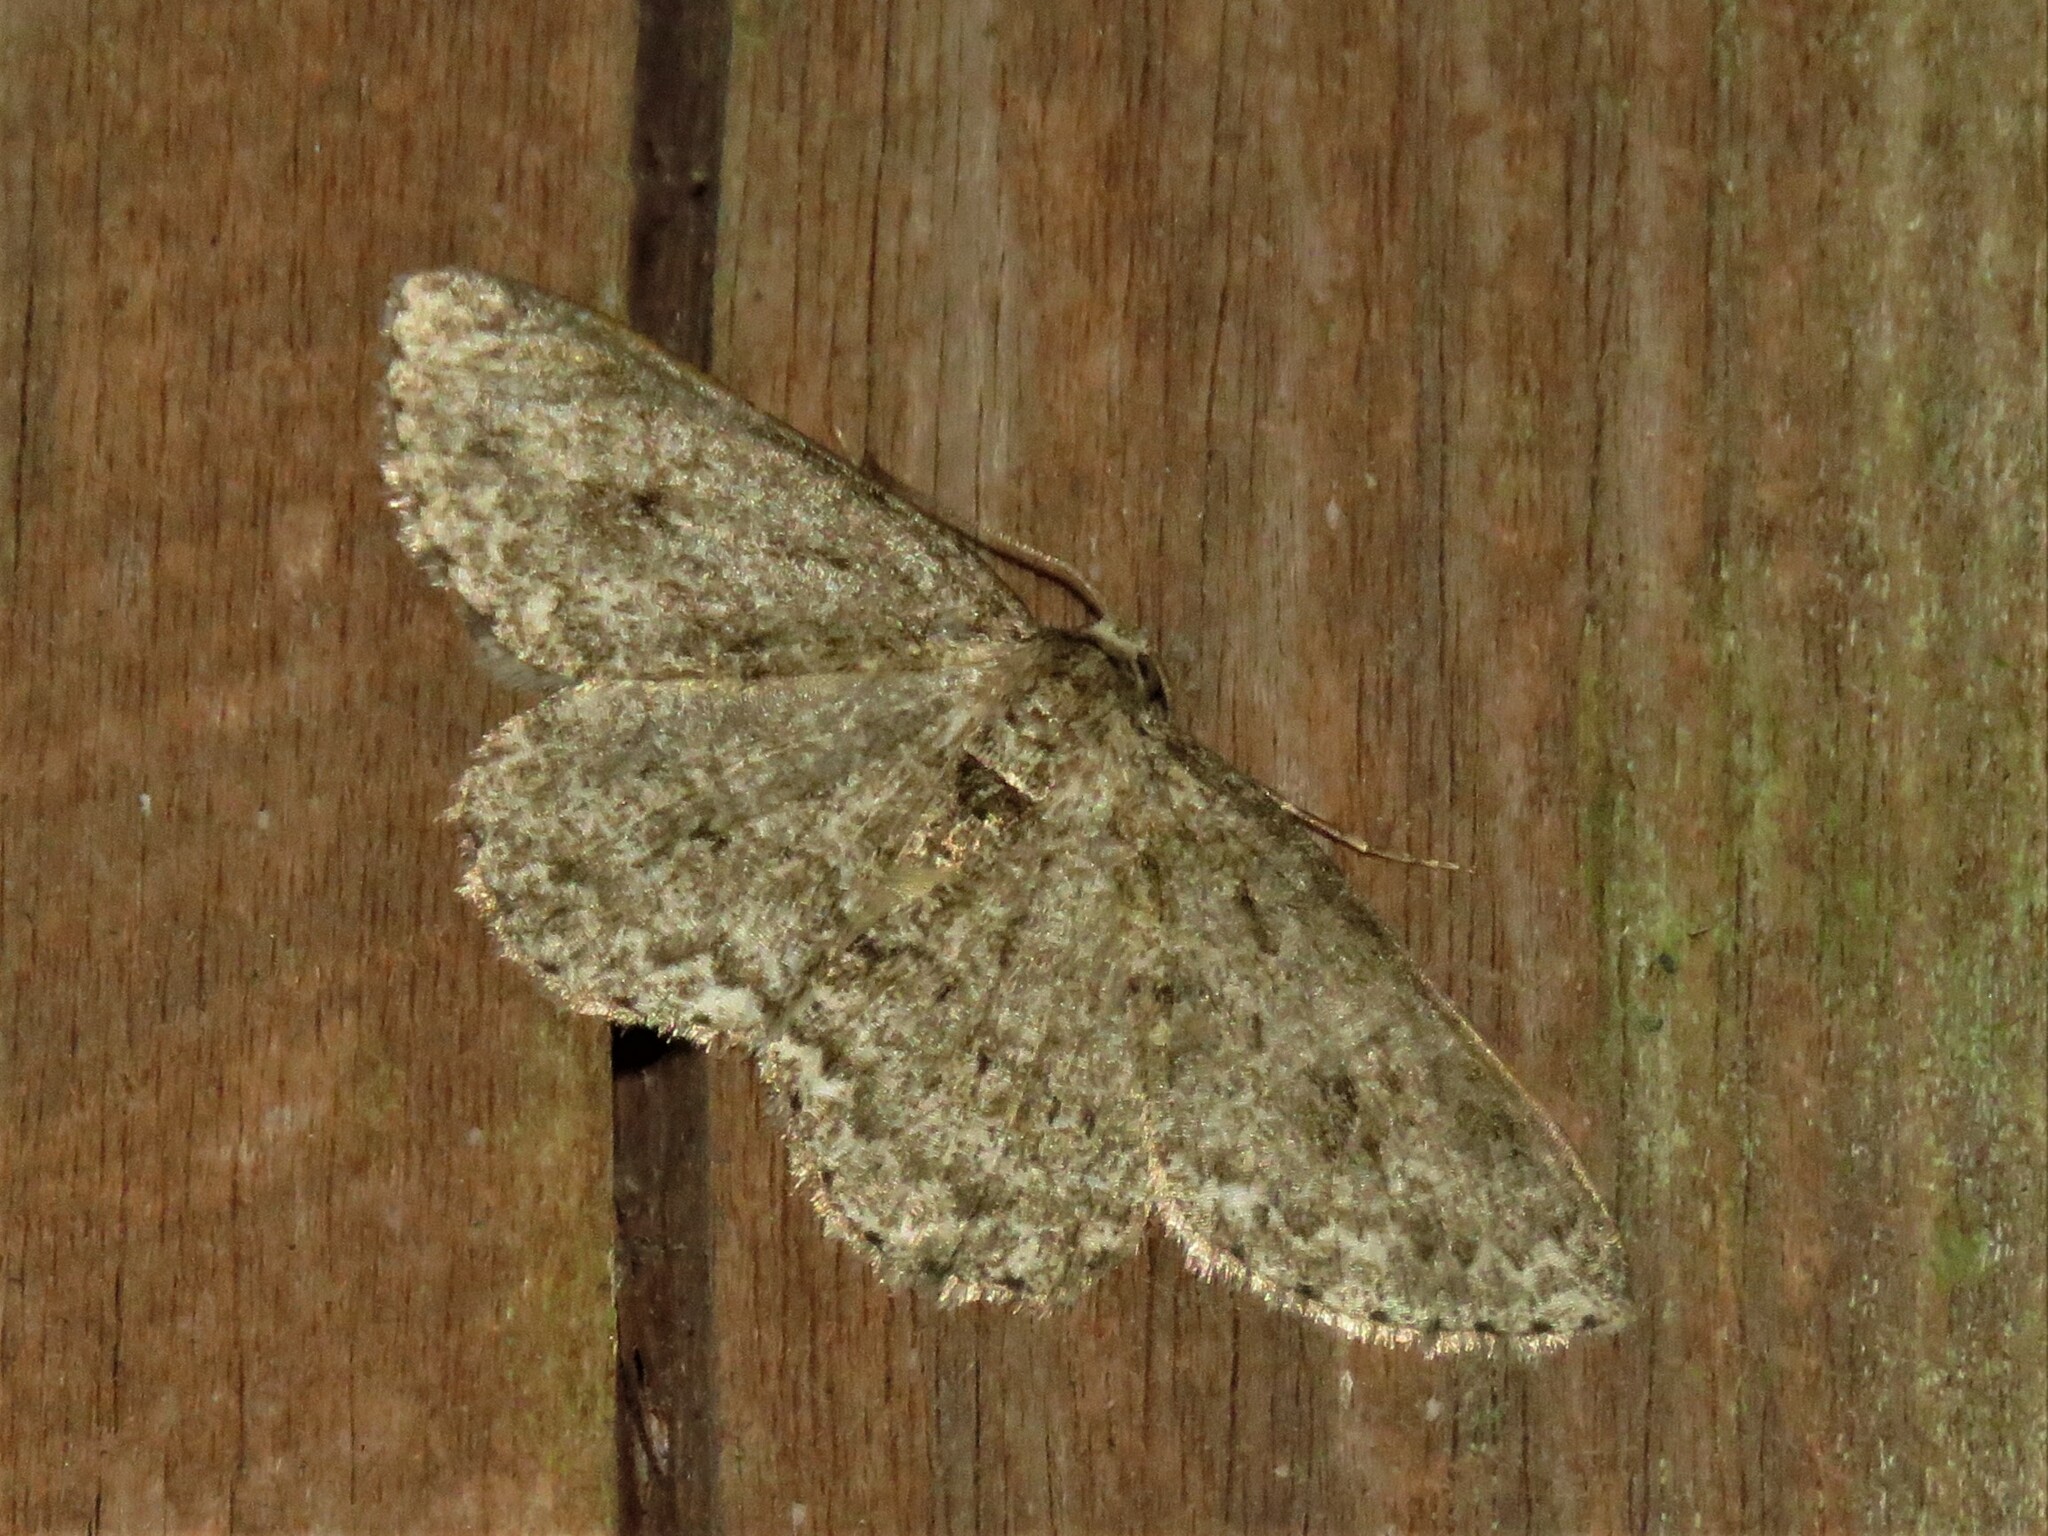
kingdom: Animalia
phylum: Arthropoda
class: Insecta
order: Lepidoptera
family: Geometridae
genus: Ectropis
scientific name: Ectropis crepuscularia
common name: Engrailed
